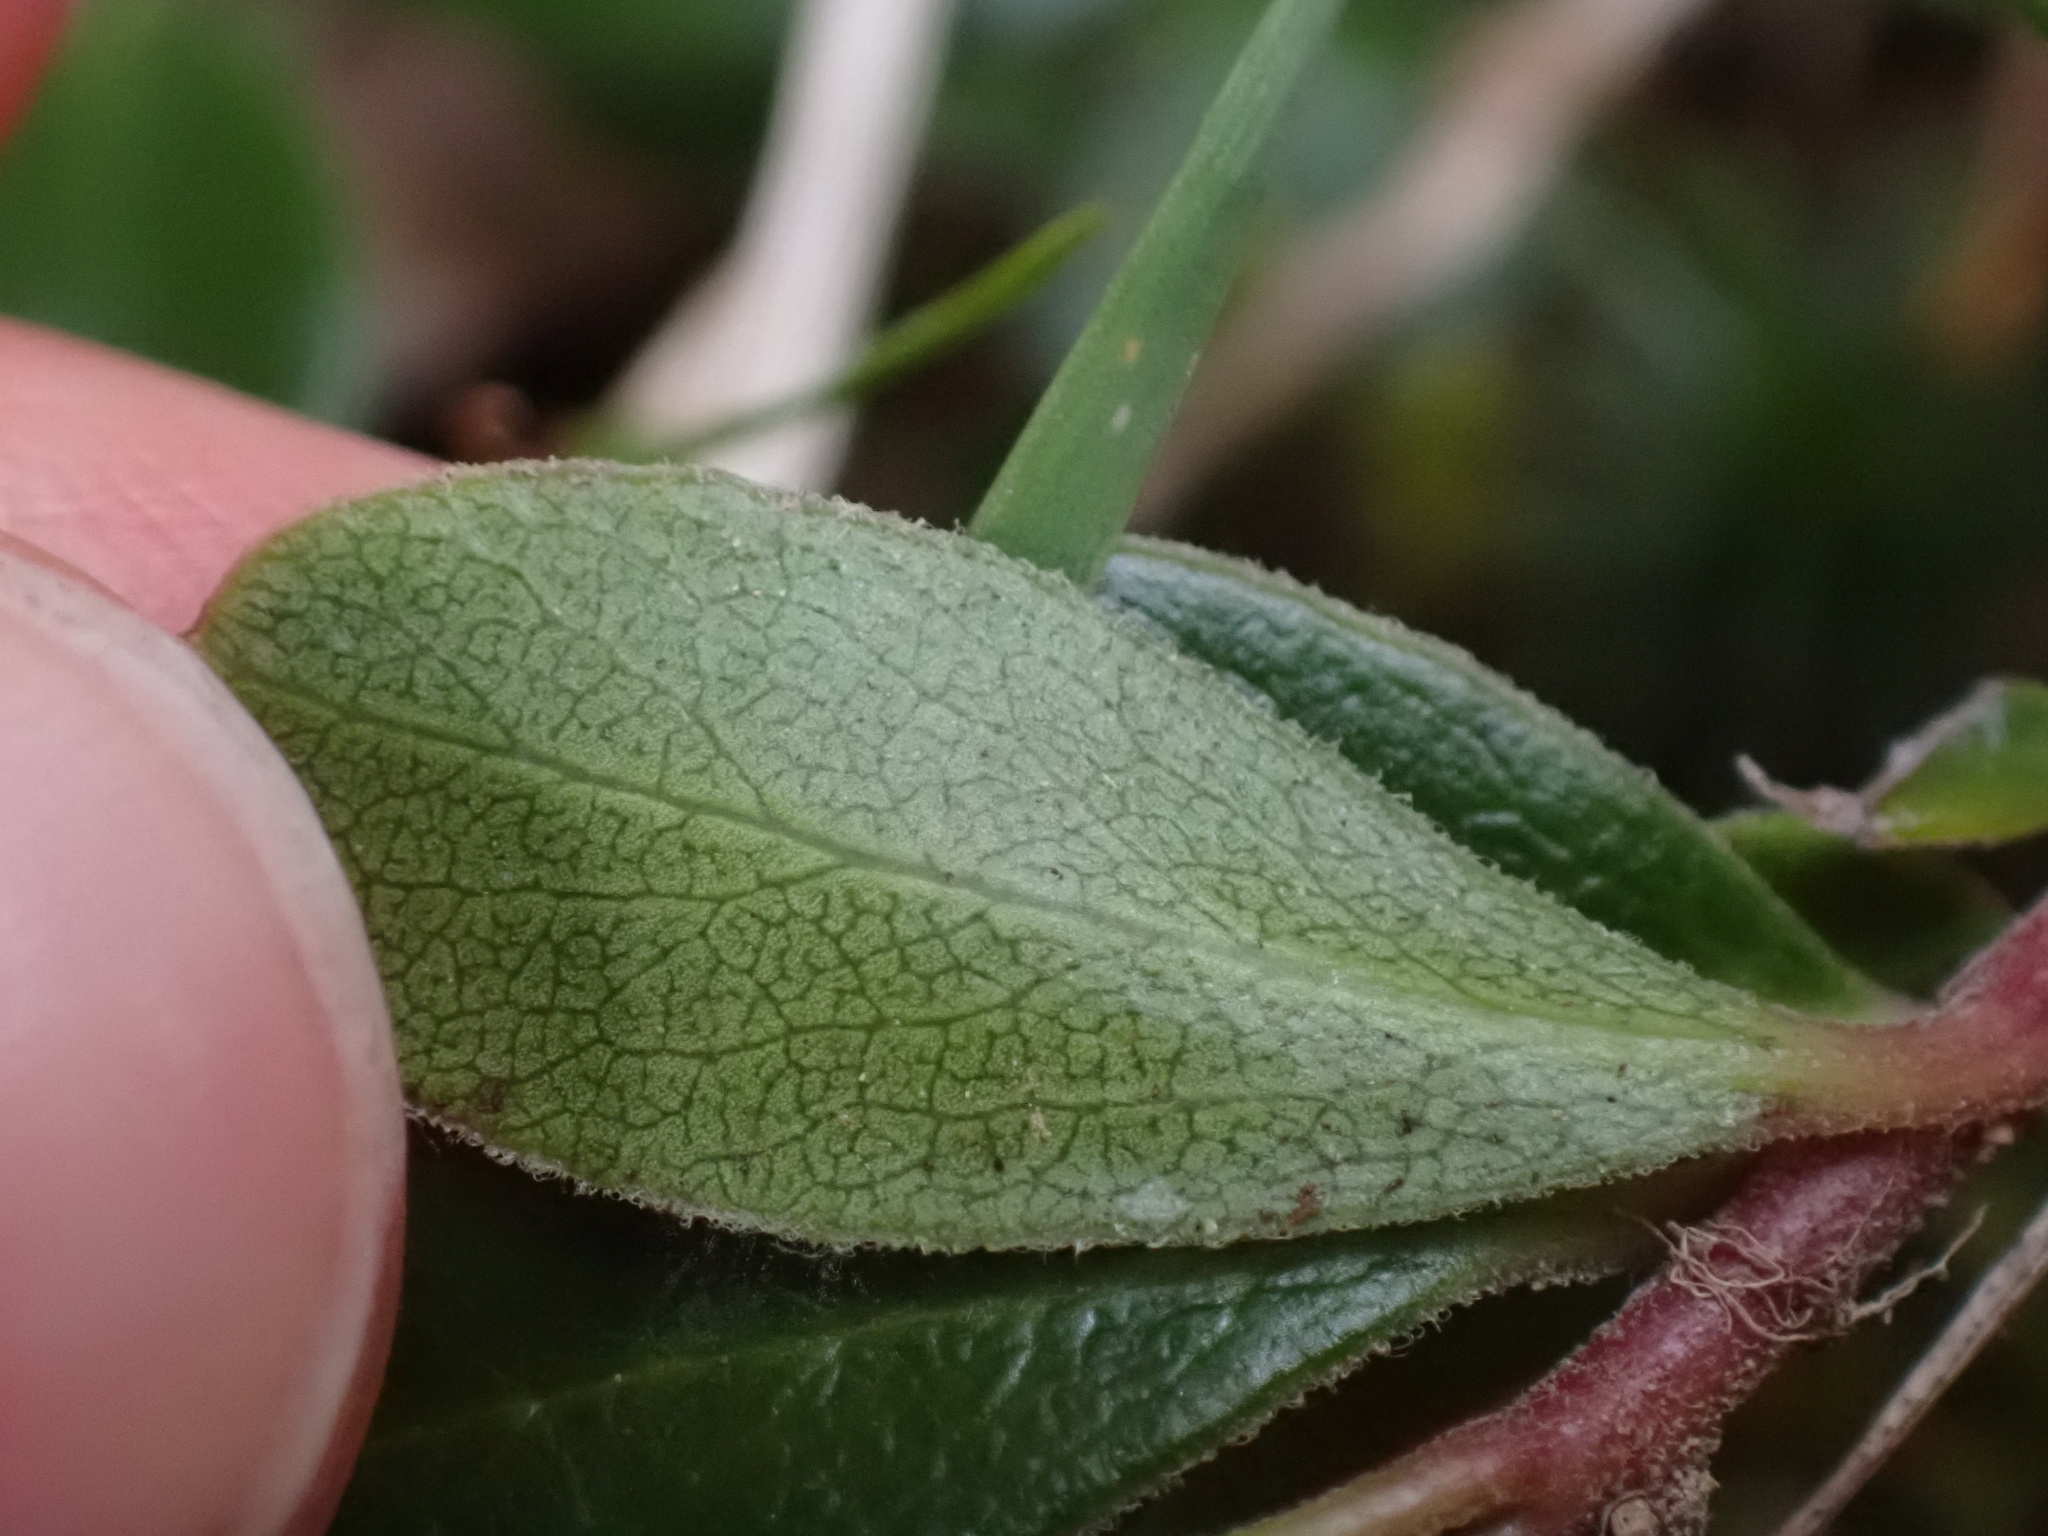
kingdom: Plantae
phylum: Tracheophyta
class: Magnoliopsida
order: Ericales
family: Ericaceae
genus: Arctostaphylos
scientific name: Arctostaphylos uva-ursi
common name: Bearberry
